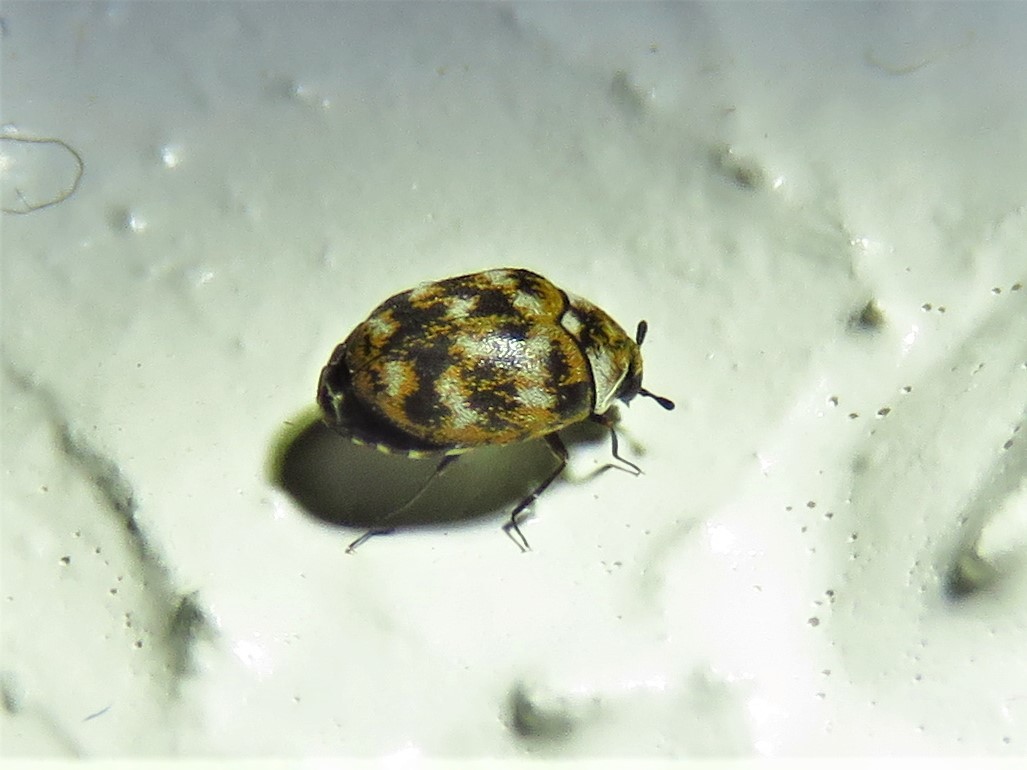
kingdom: Animalia
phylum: Arthropoda
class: Insecta
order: Coleoptera
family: Dermestidae
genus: Anthrenus
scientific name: Anthrenus verbasci
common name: Varied carpet beetle
